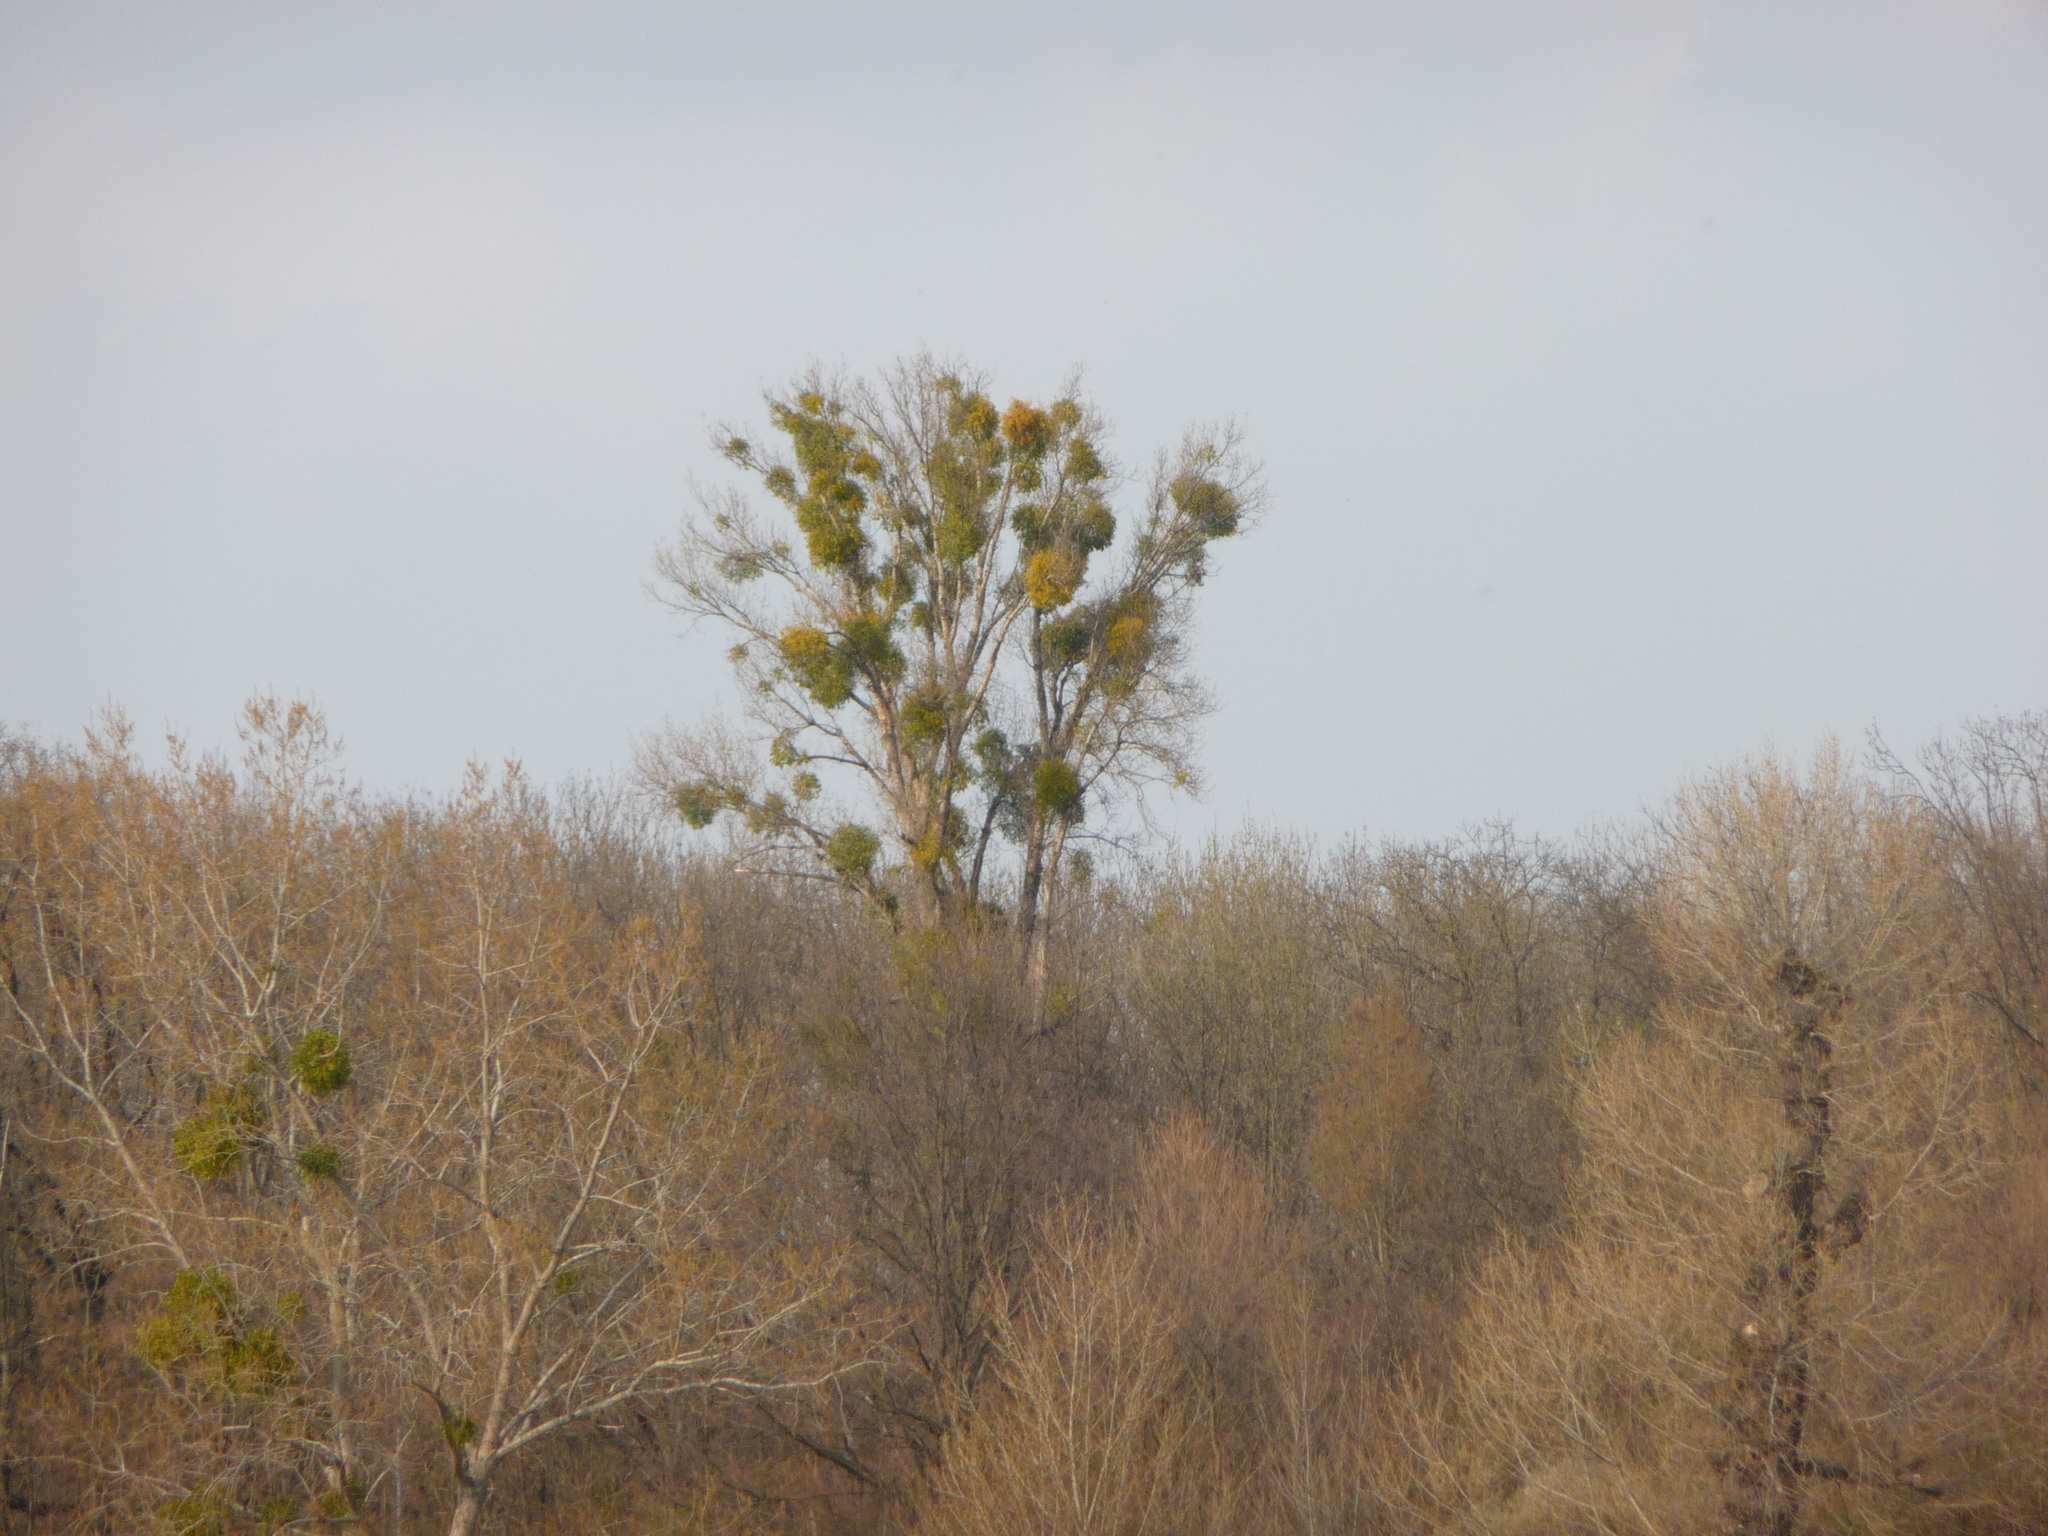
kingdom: Plantae
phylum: Tracheophyta
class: Magnoliopsida
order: Santalales
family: Viscaceae
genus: Viscum
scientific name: Viscum album
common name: Mistletoe
